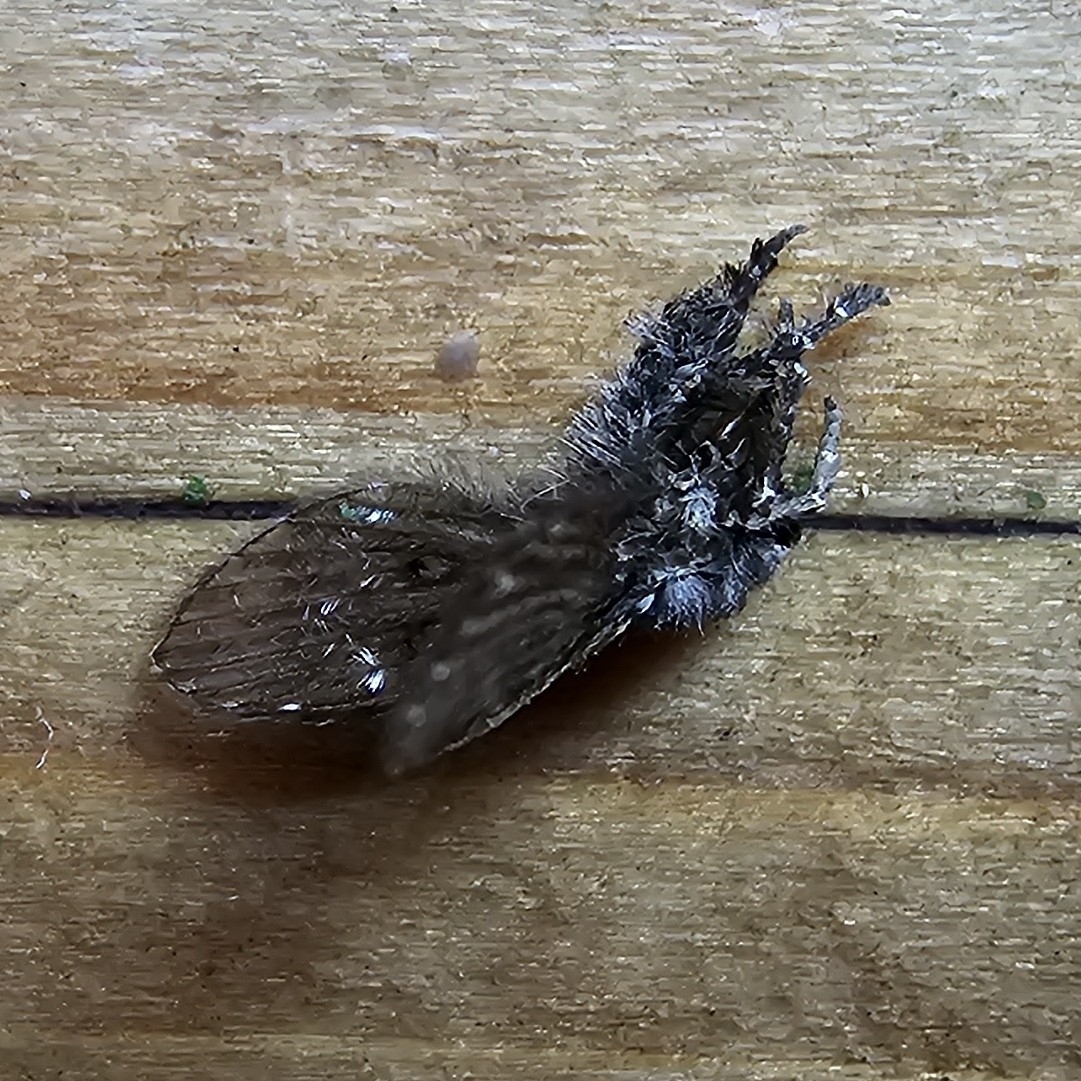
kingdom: Animalia
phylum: Arthropoda
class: Insecta
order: Diptera
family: Psychodidae
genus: Clogmia
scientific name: Clogmia albipunctatus
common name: White-spotted moth fly
